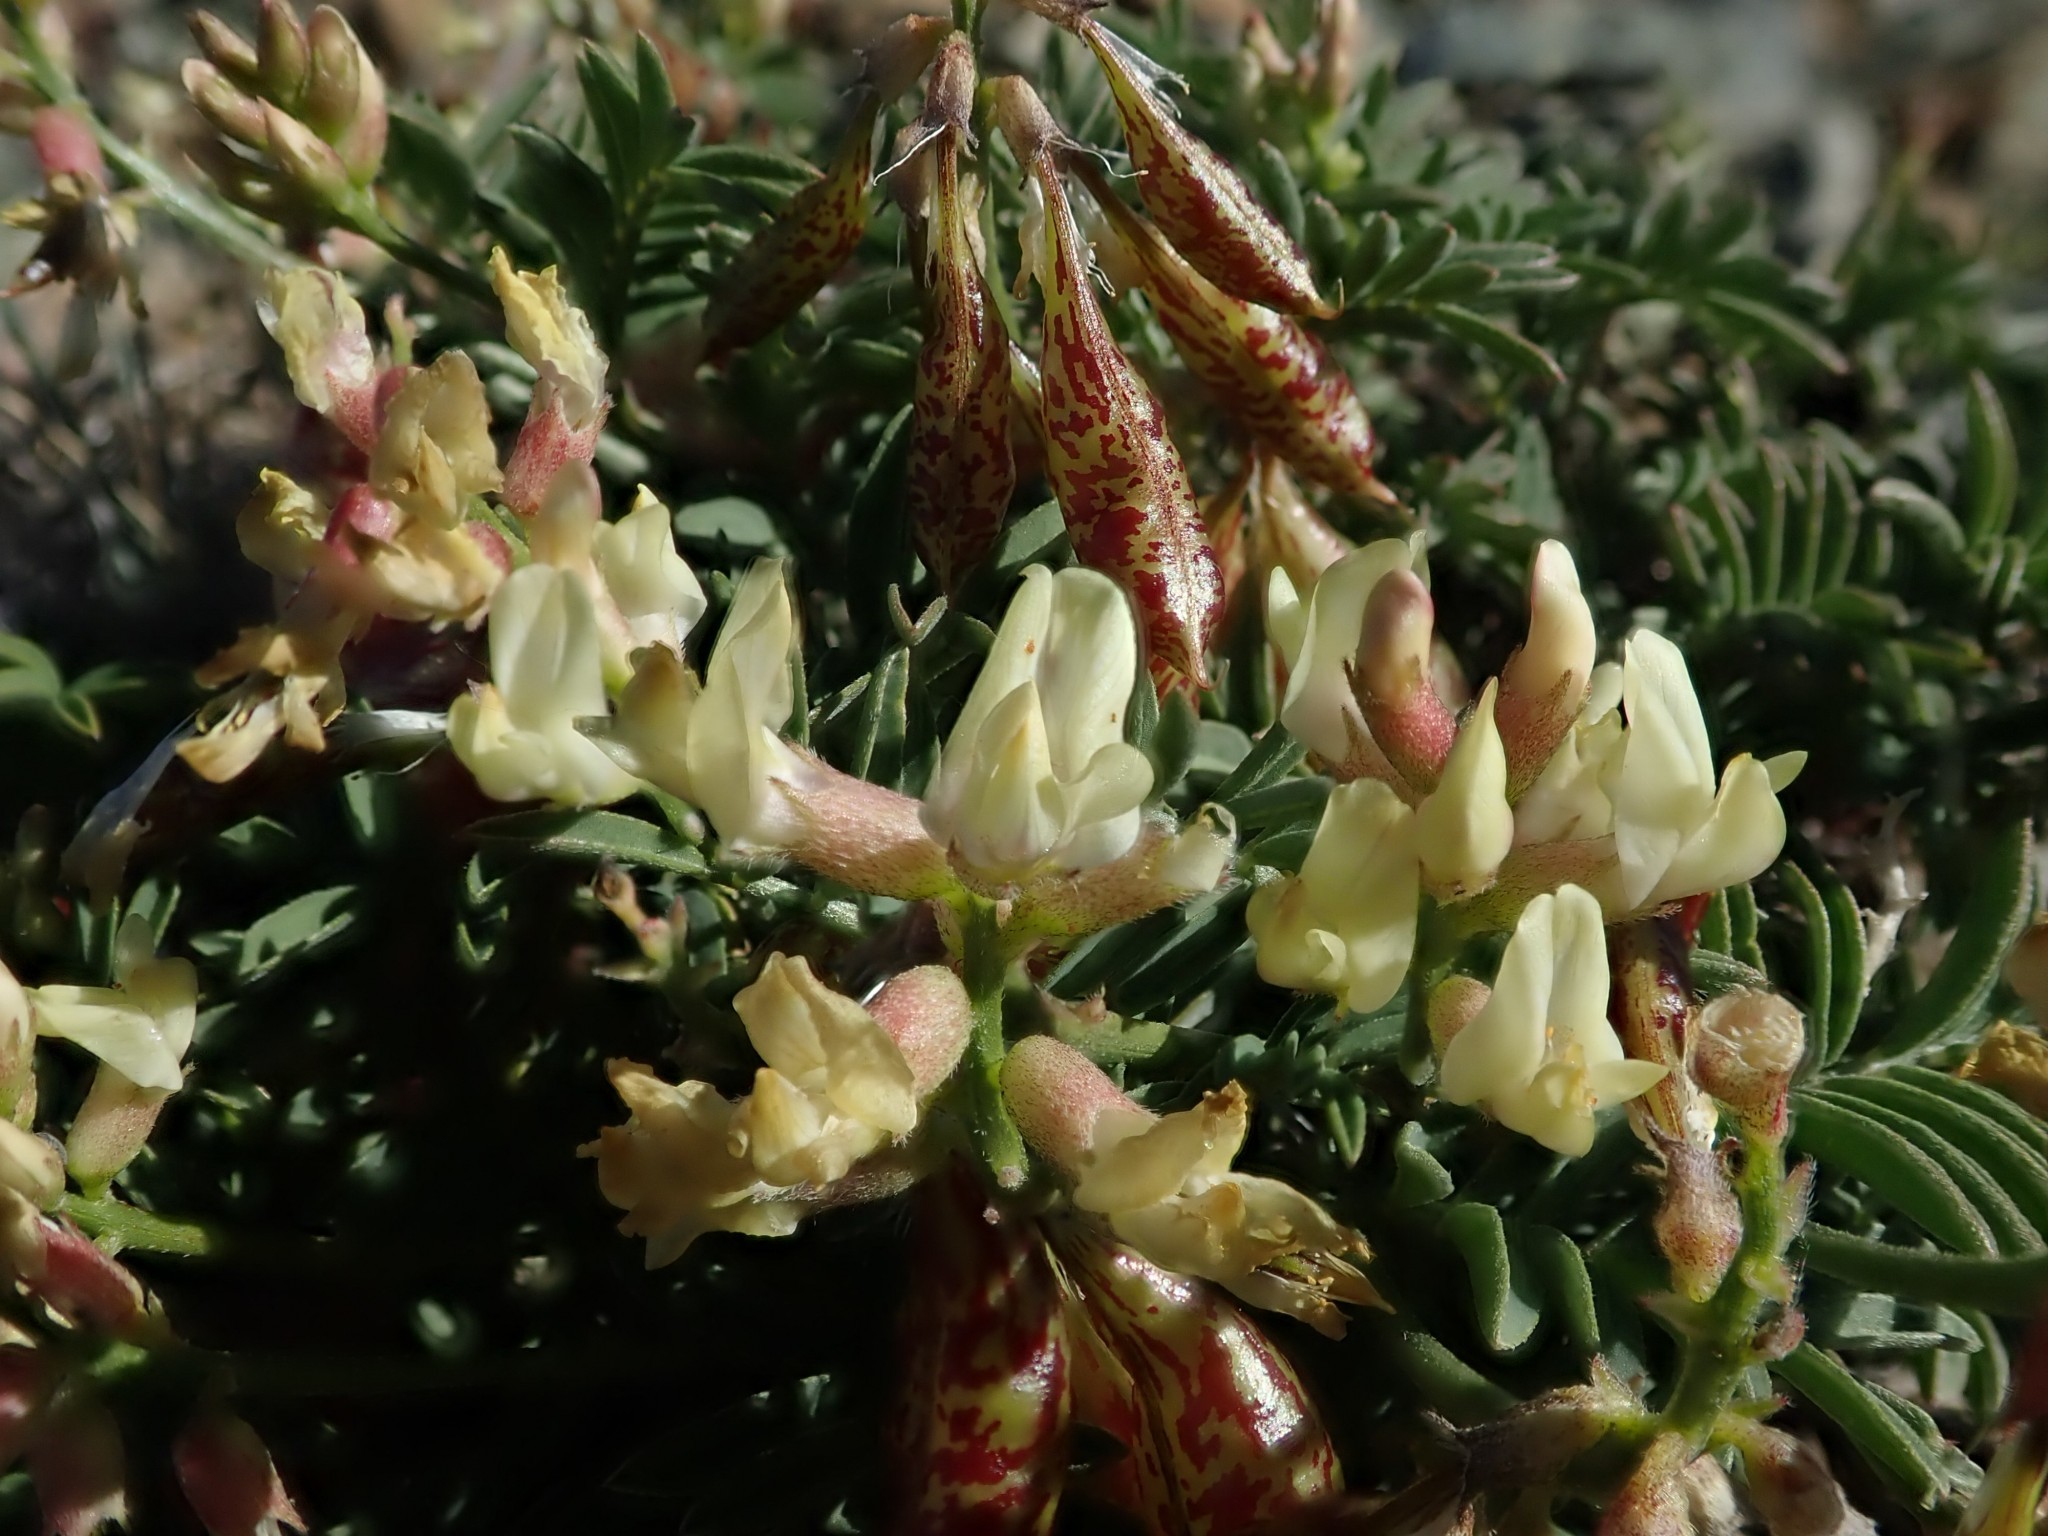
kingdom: Plantae
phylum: Tracheophyta
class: Magnoliopsida
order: Fabales
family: Fabaceae
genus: Astragalus
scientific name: Astragalus whitneyi
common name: Balloonpod milkvetch
